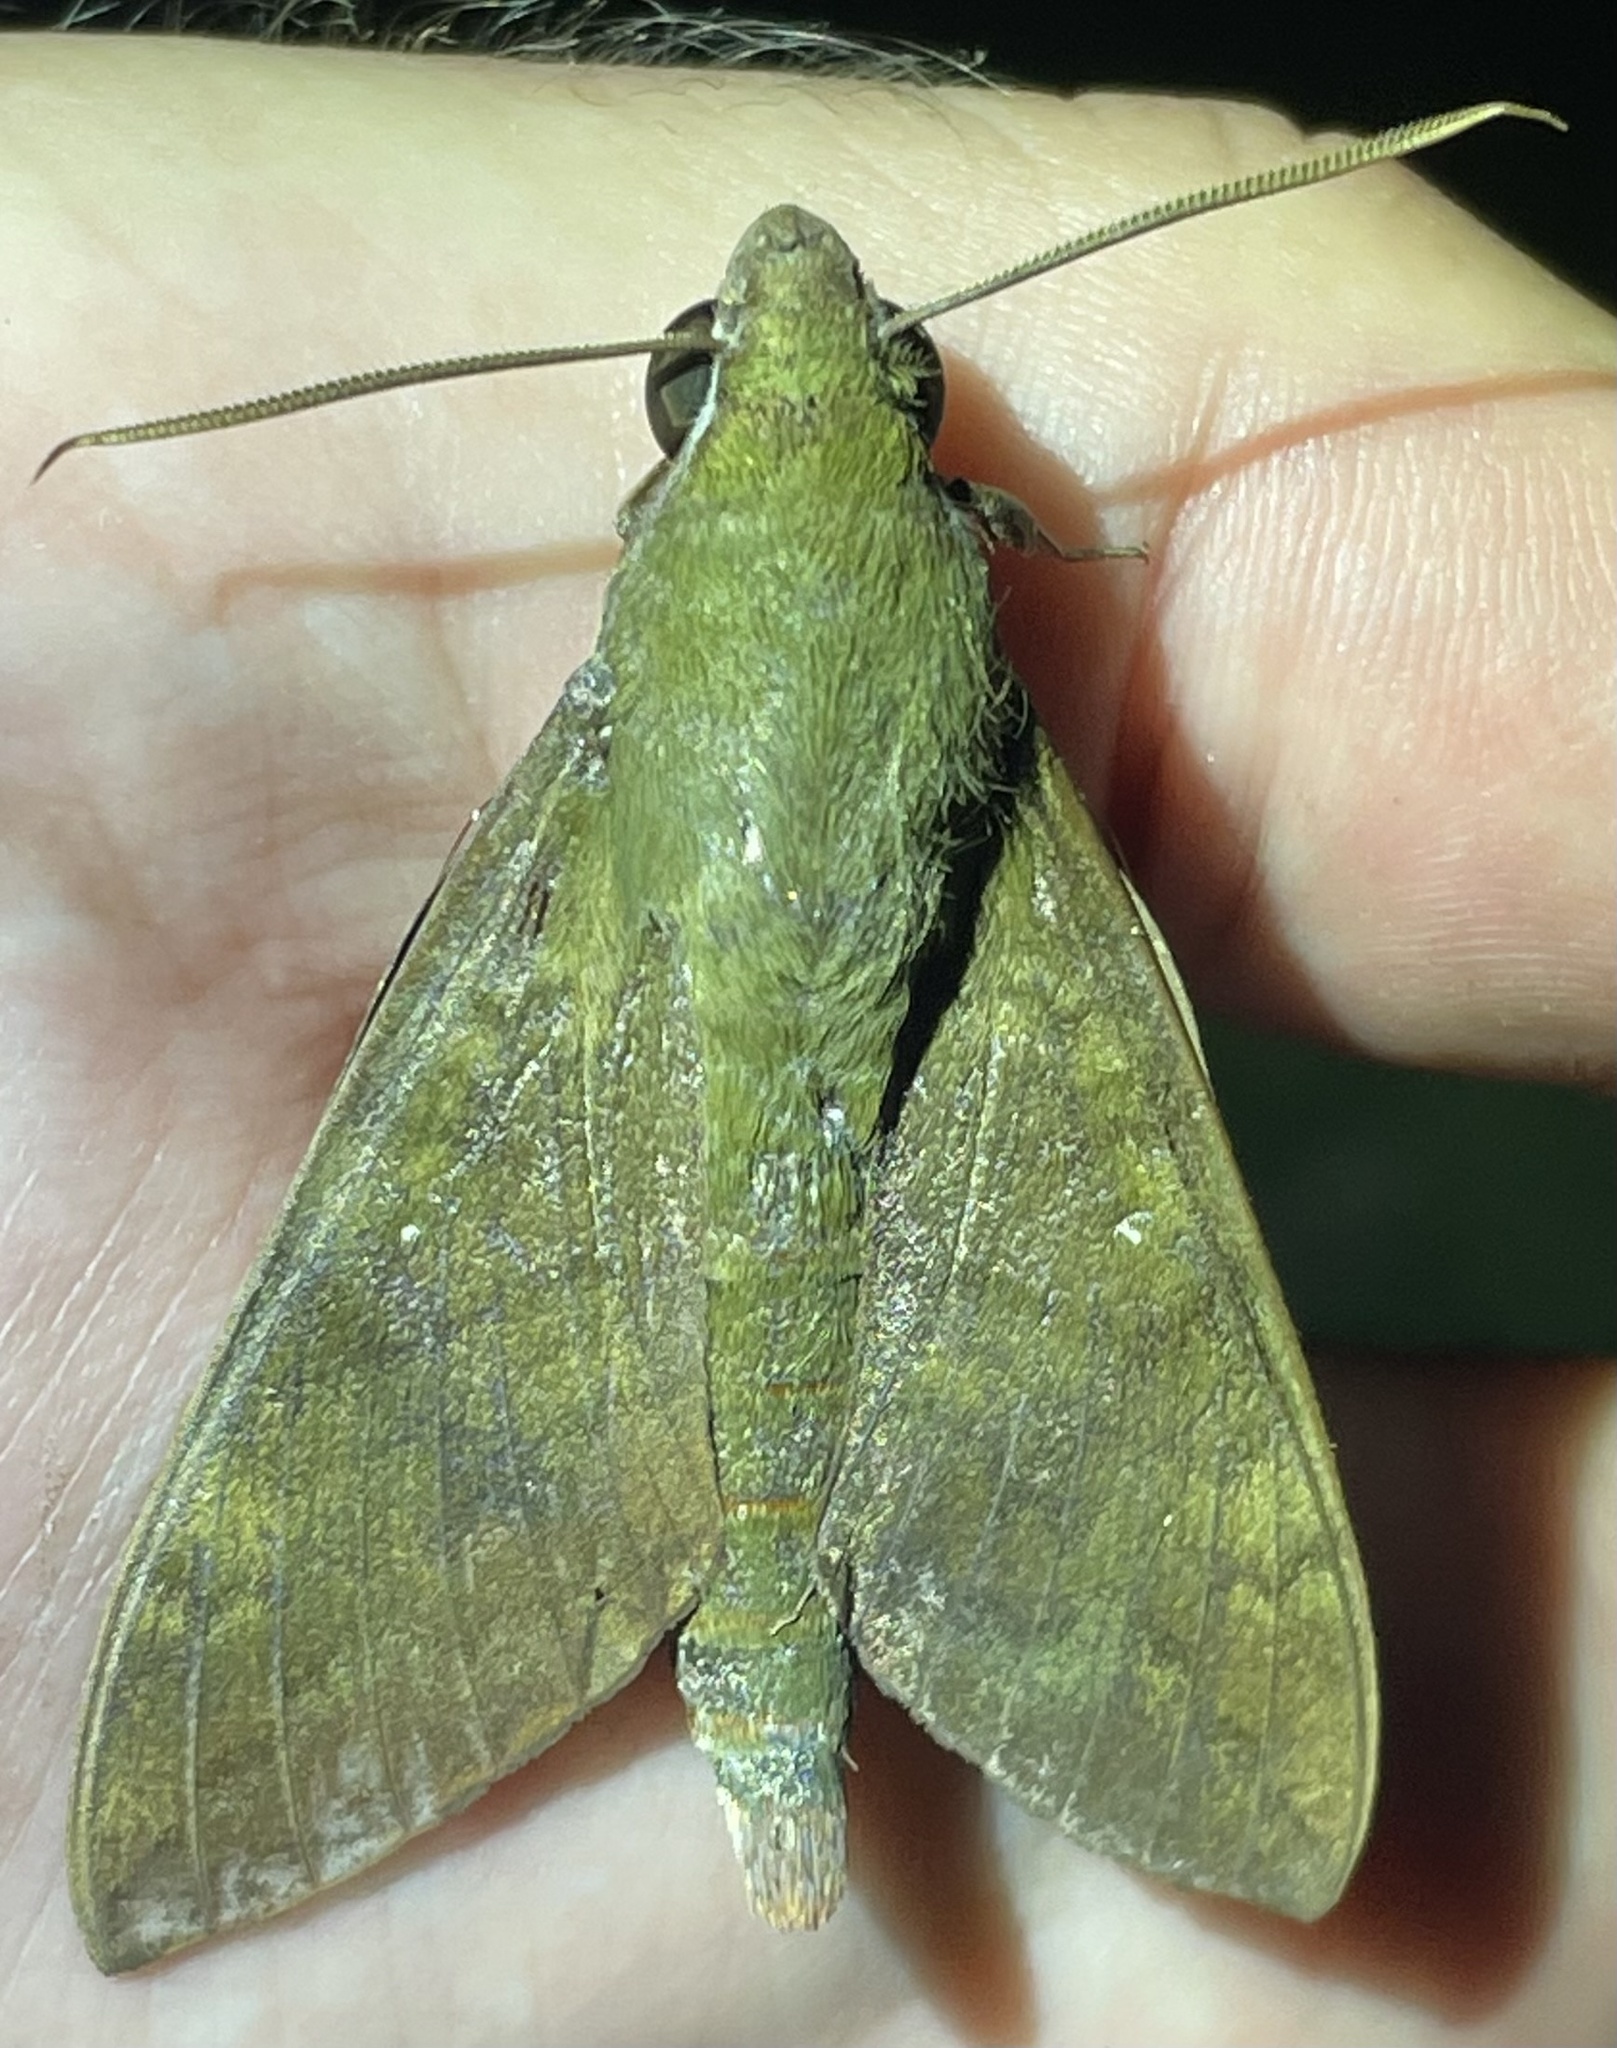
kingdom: Animalia
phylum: Arthropoda
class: Insecta
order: Lepidoptera
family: Sphingidae
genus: Nephele
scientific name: Nephele funebris
